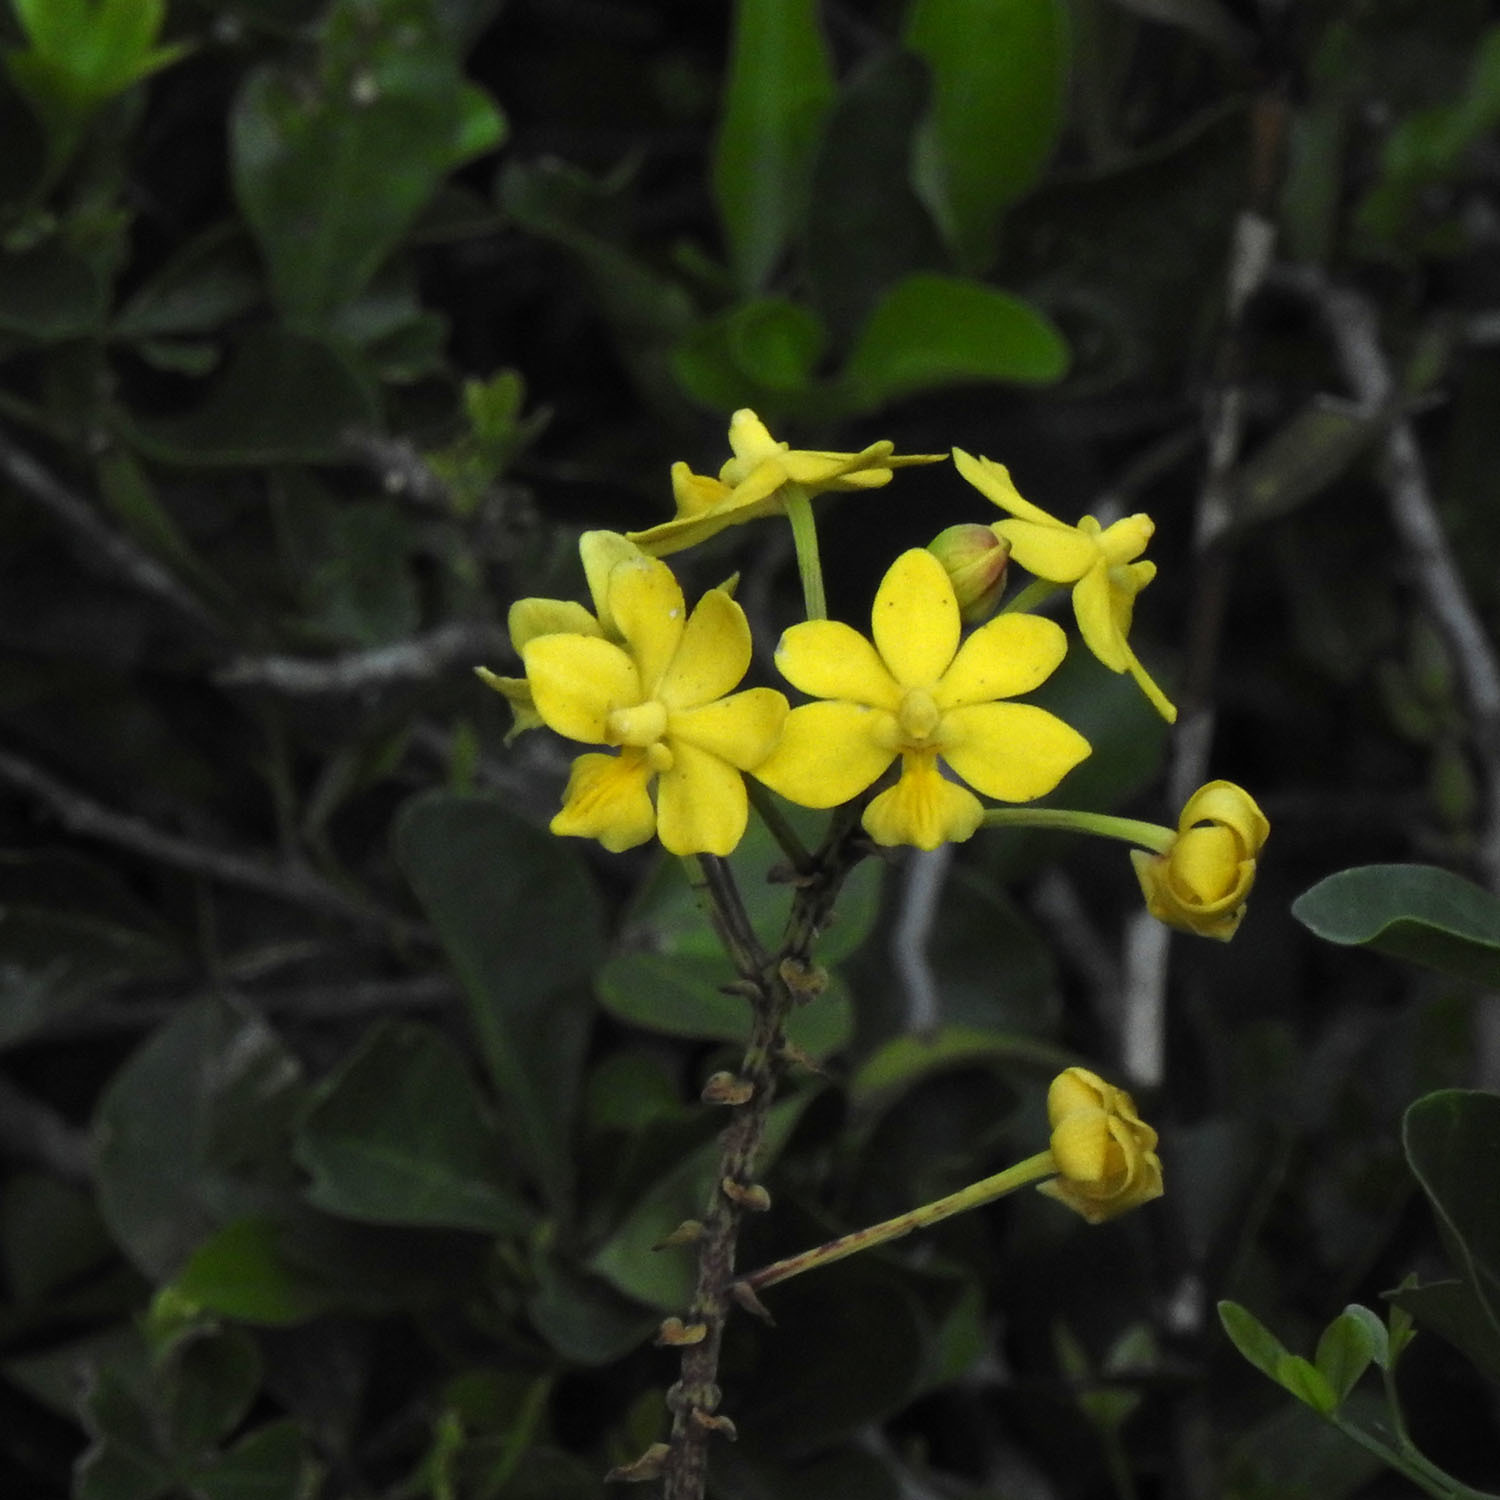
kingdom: Plantae
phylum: Tracheophyta
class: Liliopsida
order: Asparagales
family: Orchidaceae
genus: Taprobanea
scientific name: Taprobanea spathulata
